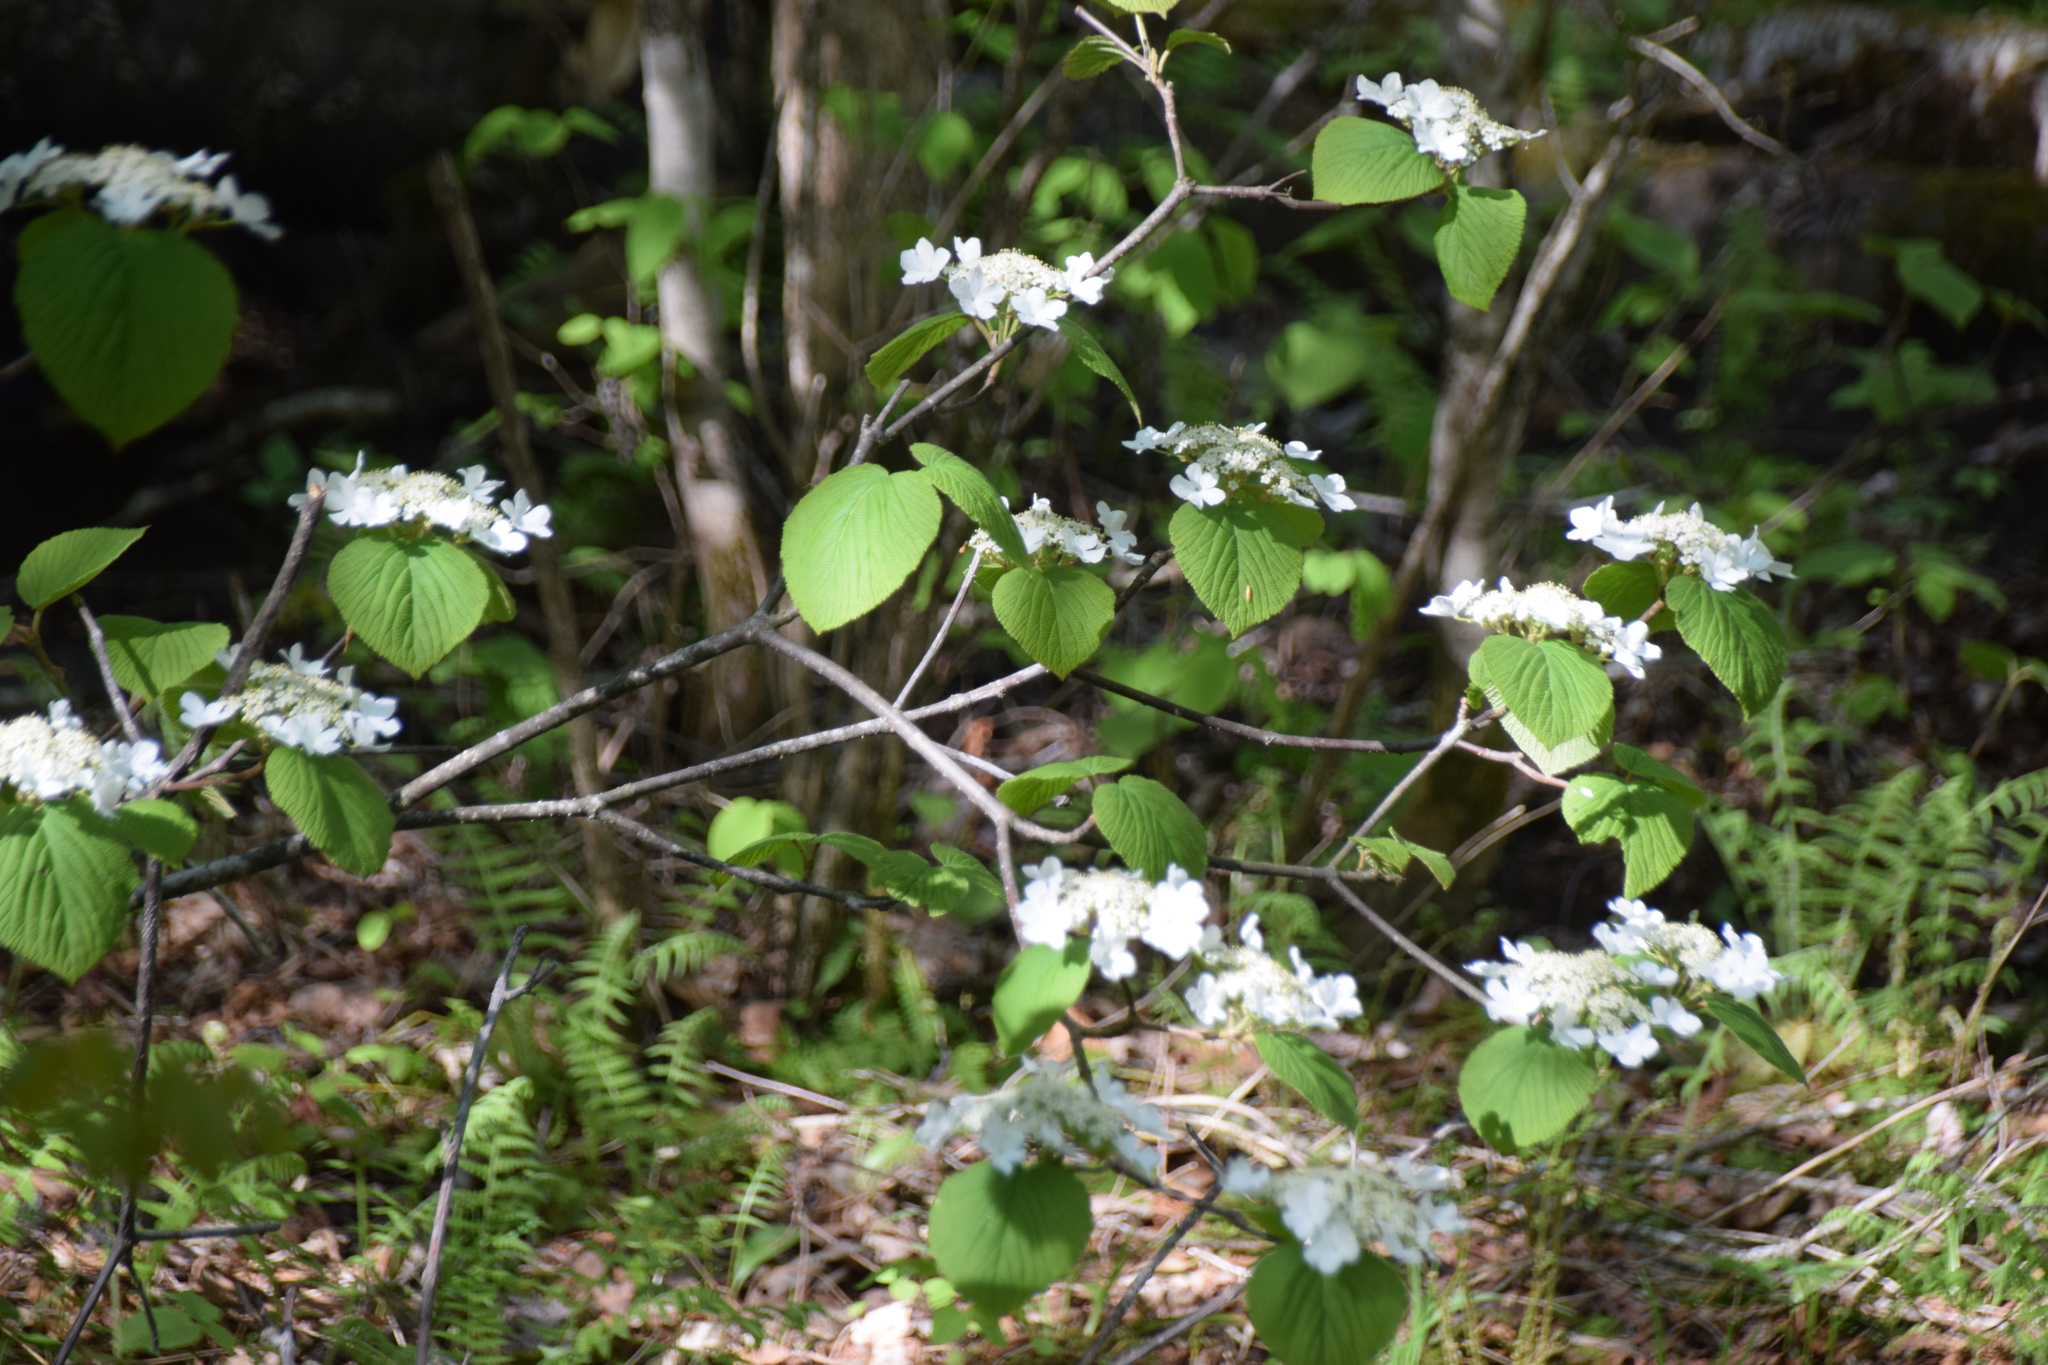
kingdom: Plantae
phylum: Tracheophyta
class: Magnoliopsida
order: Dipsacales
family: Viburnaceae
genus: Viburnum
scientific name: Viburnum lantanoides
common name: Hobblebush
